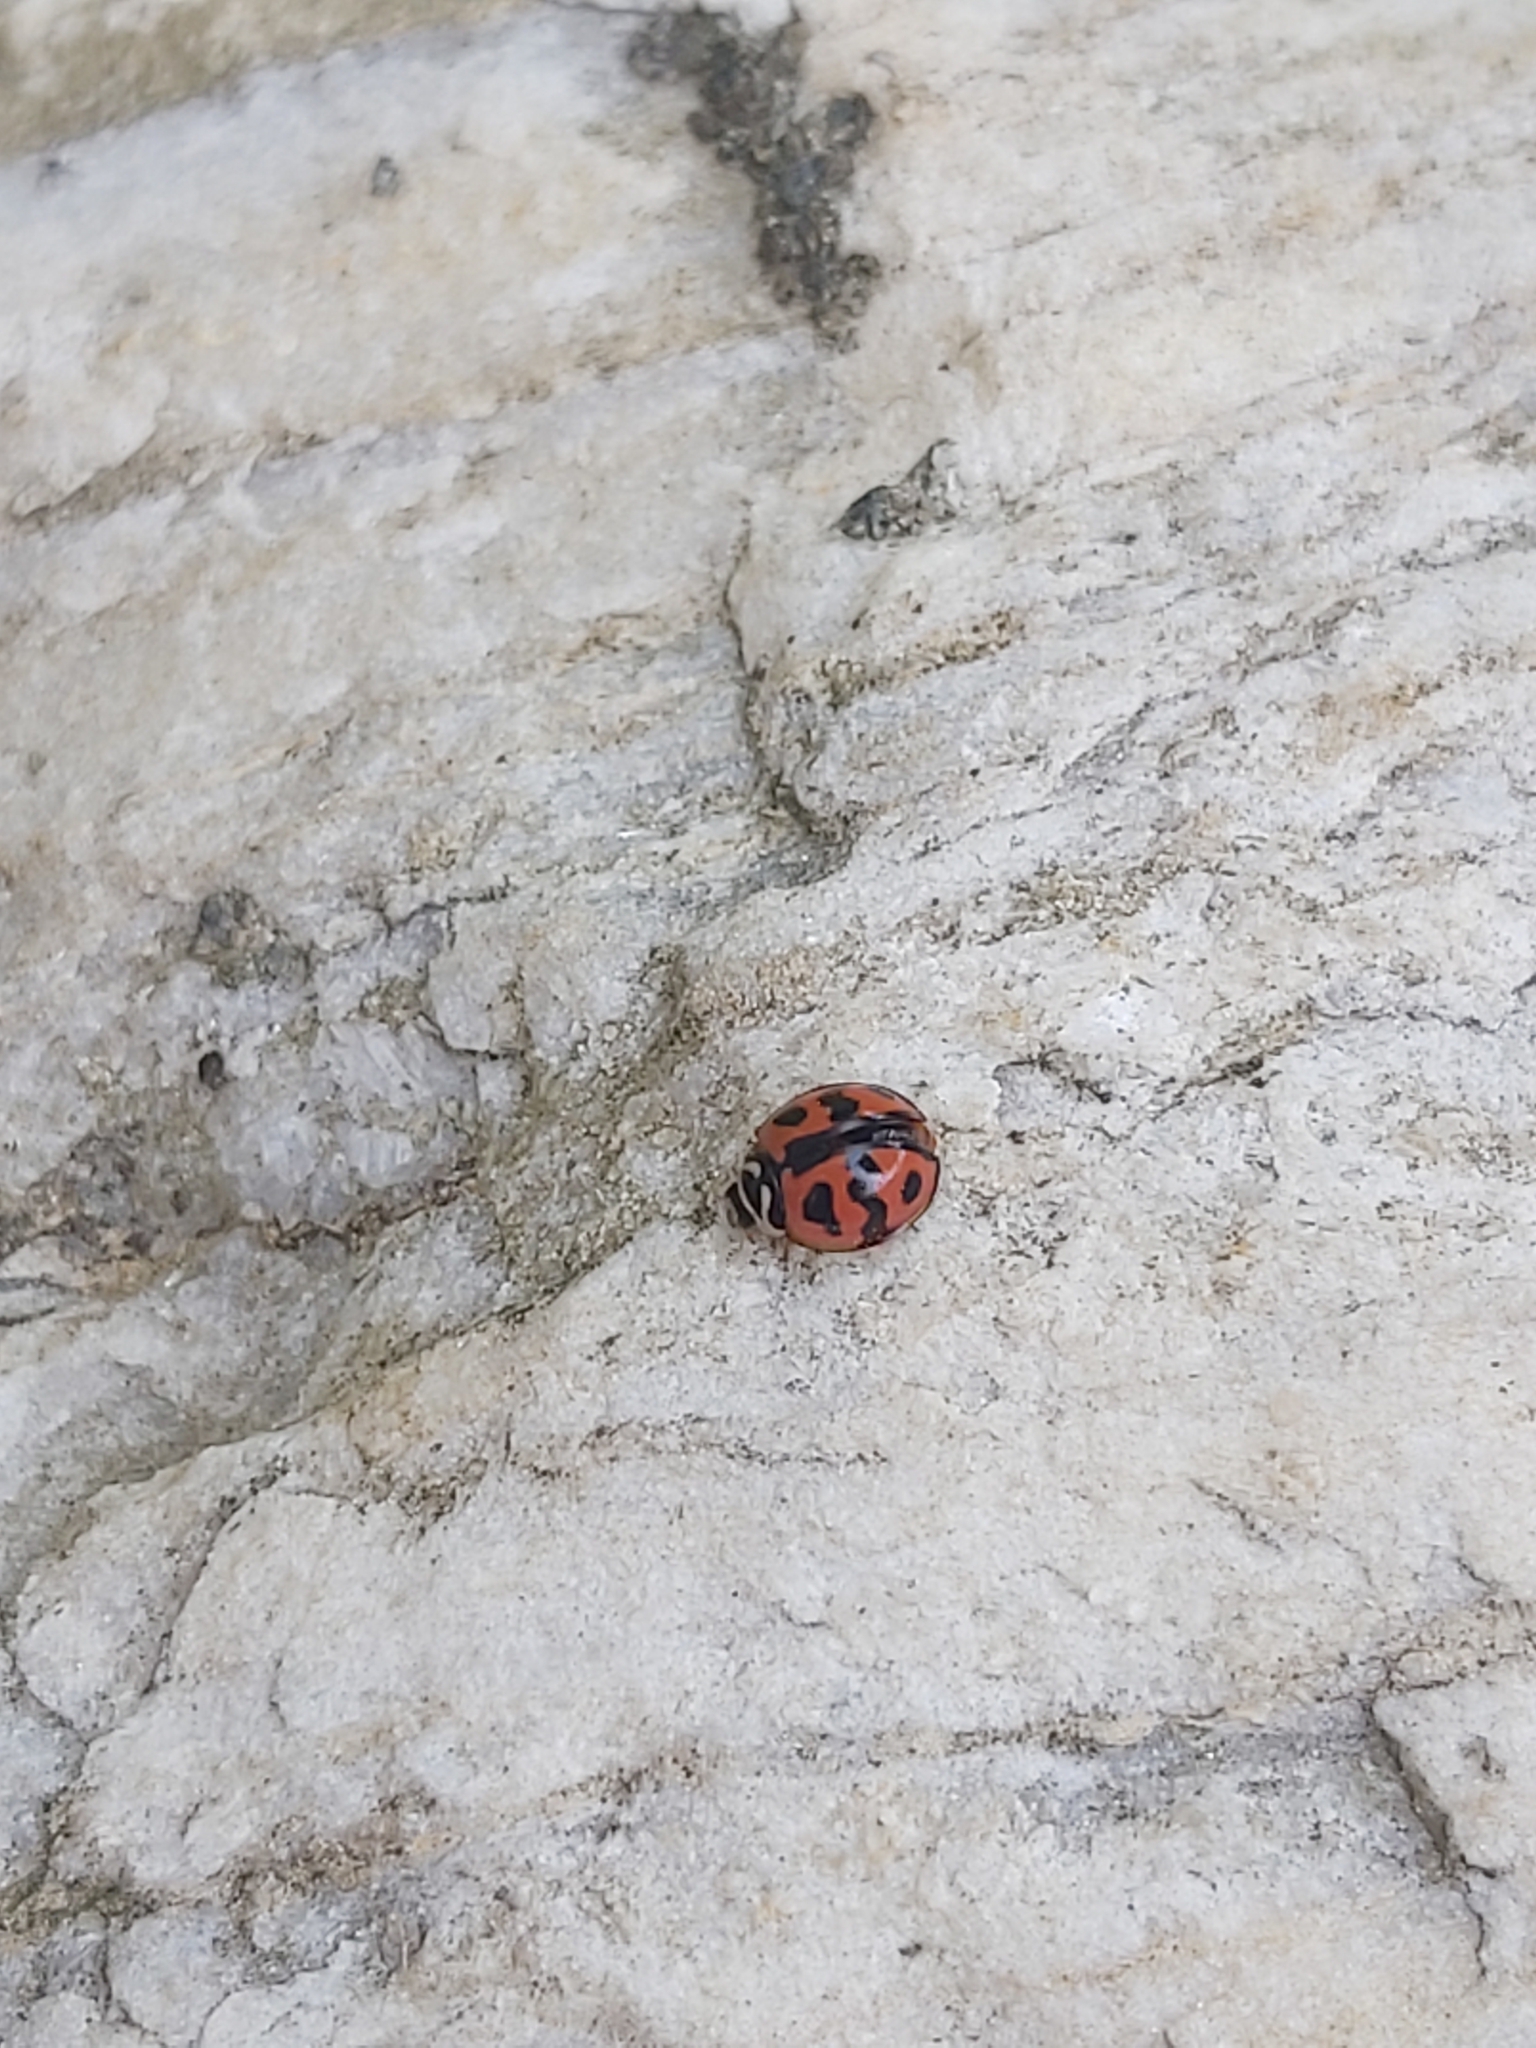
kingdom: Animalia
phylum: Arthropoda
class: Insecta
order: Coleoptera
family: Coccinellidae
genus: Cheilomenes
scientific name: Cheilomenes sexmaculata
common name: Ladybird beetle
